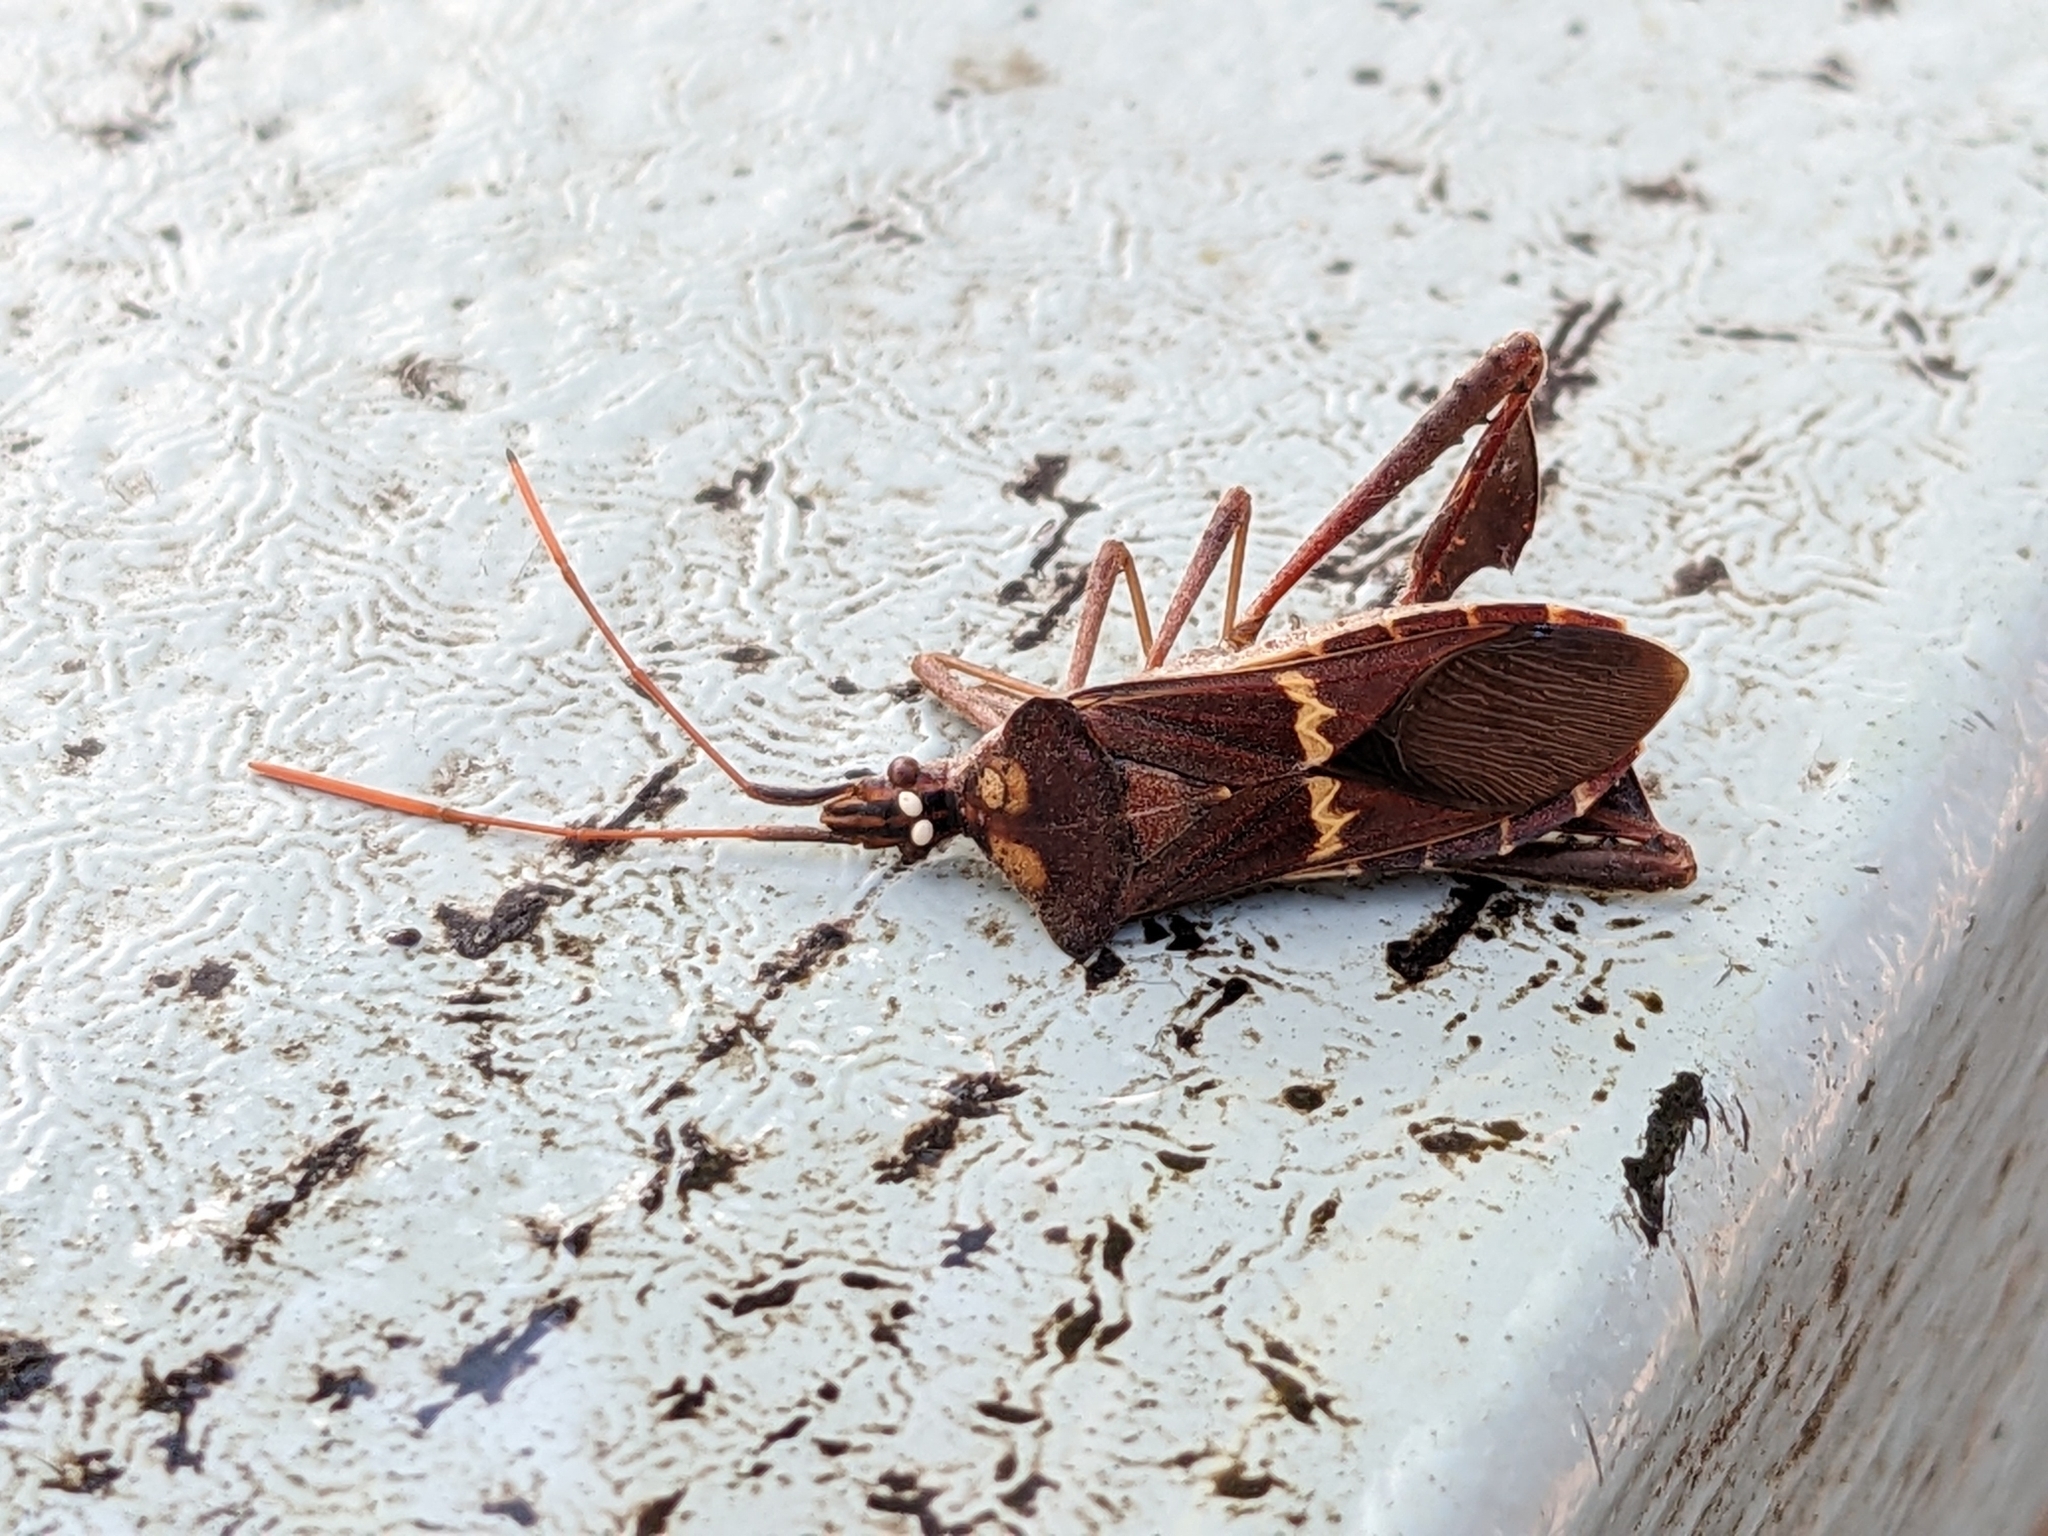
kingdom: Animalia
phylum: Arthropoda
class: Insecta
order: Hemiptera
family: Coreidae
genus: Leptoglossus
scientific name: Leptoglossus zonatus
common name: Large-legged bug
